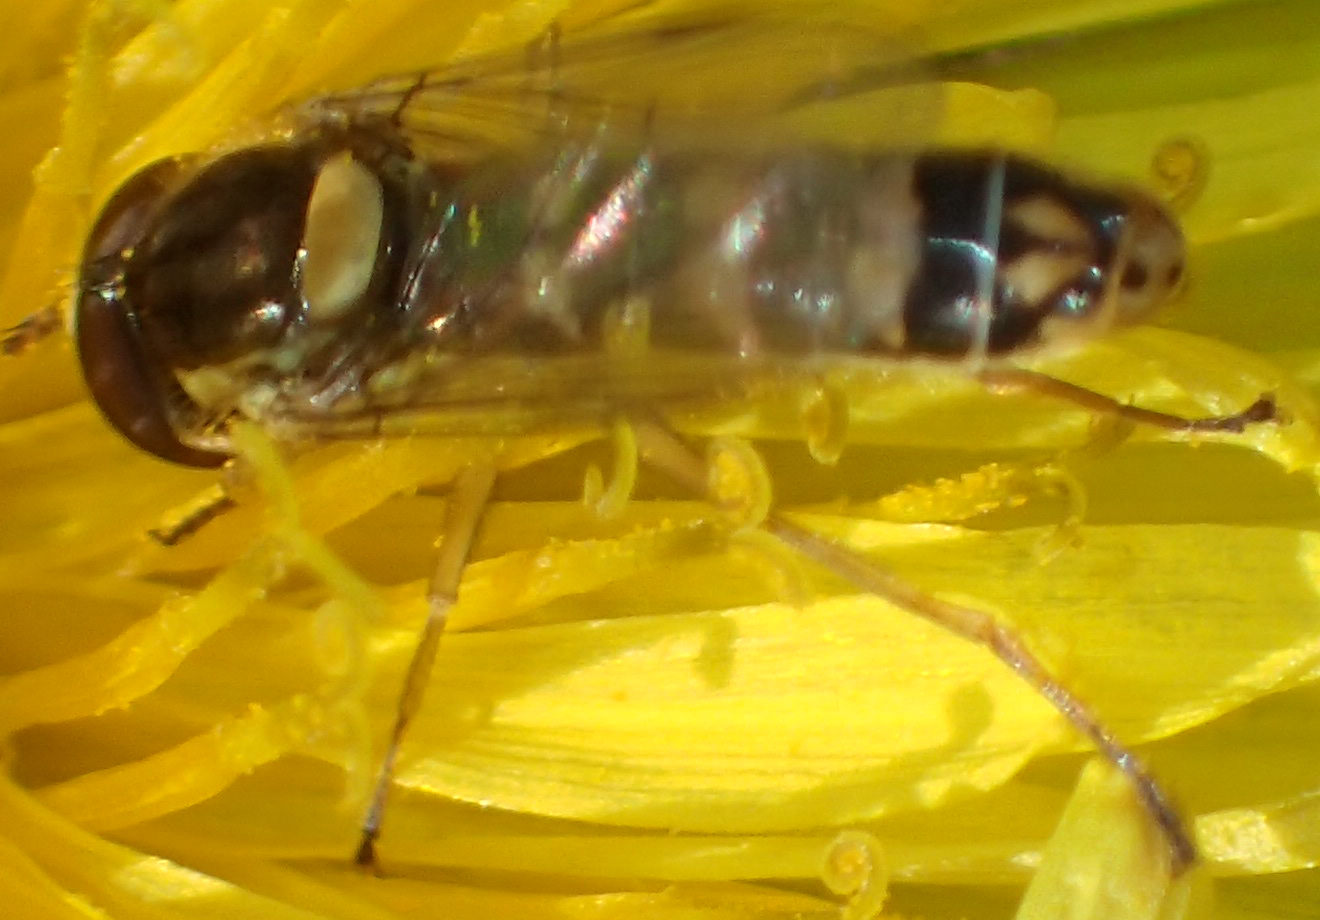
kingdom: Animalia
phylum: Arthropoda
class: Insecta
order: Diptera
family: Syrphidae
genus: Sphaerophoria
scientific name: Sphaerophoria philantha
